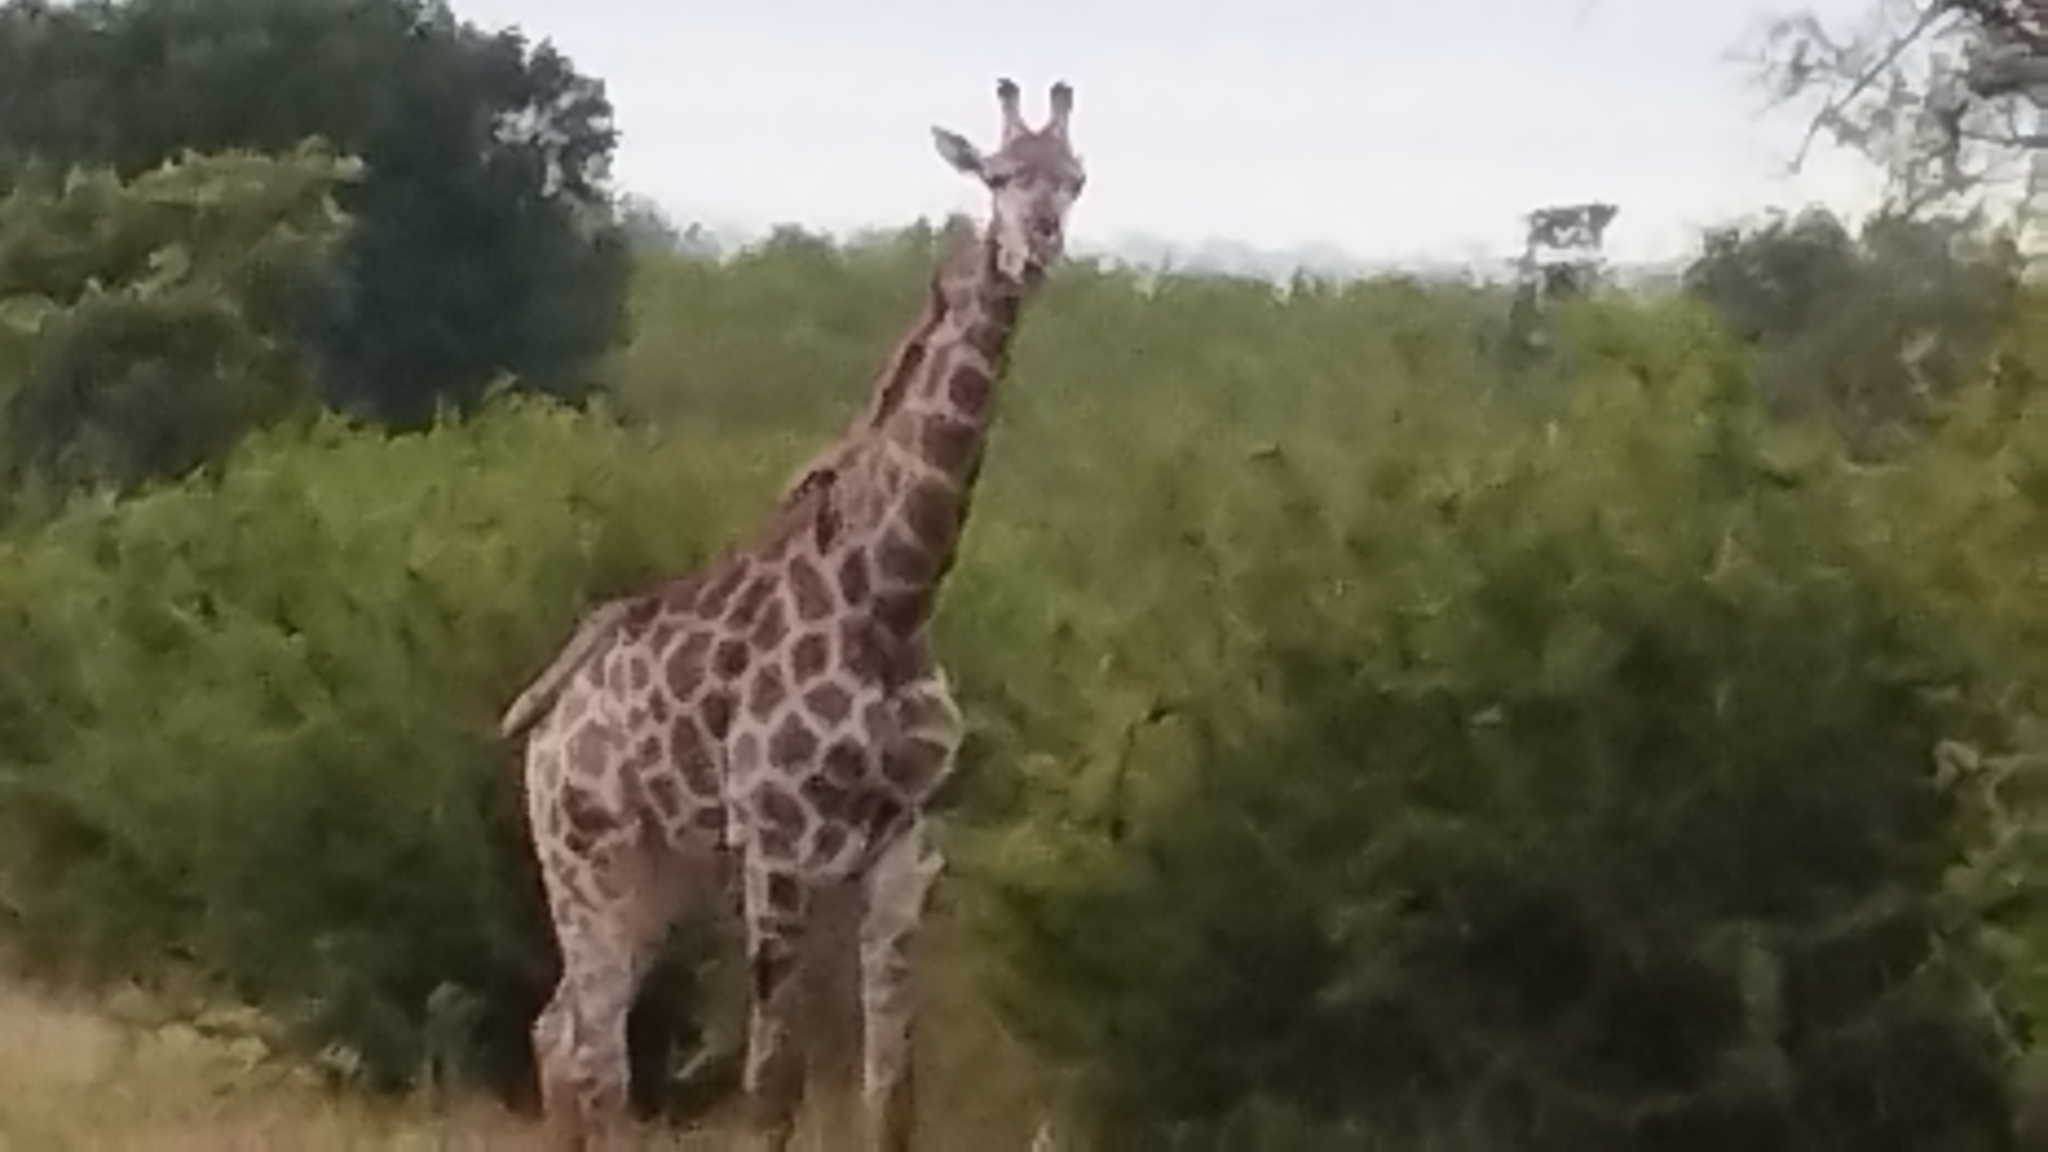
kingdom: Animalia
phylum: Chordata
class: Mammalia
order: Artiodactyla
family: Giraffidae
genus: Giraffa
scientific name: Giraffa giraffa
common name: Southern giraffe
